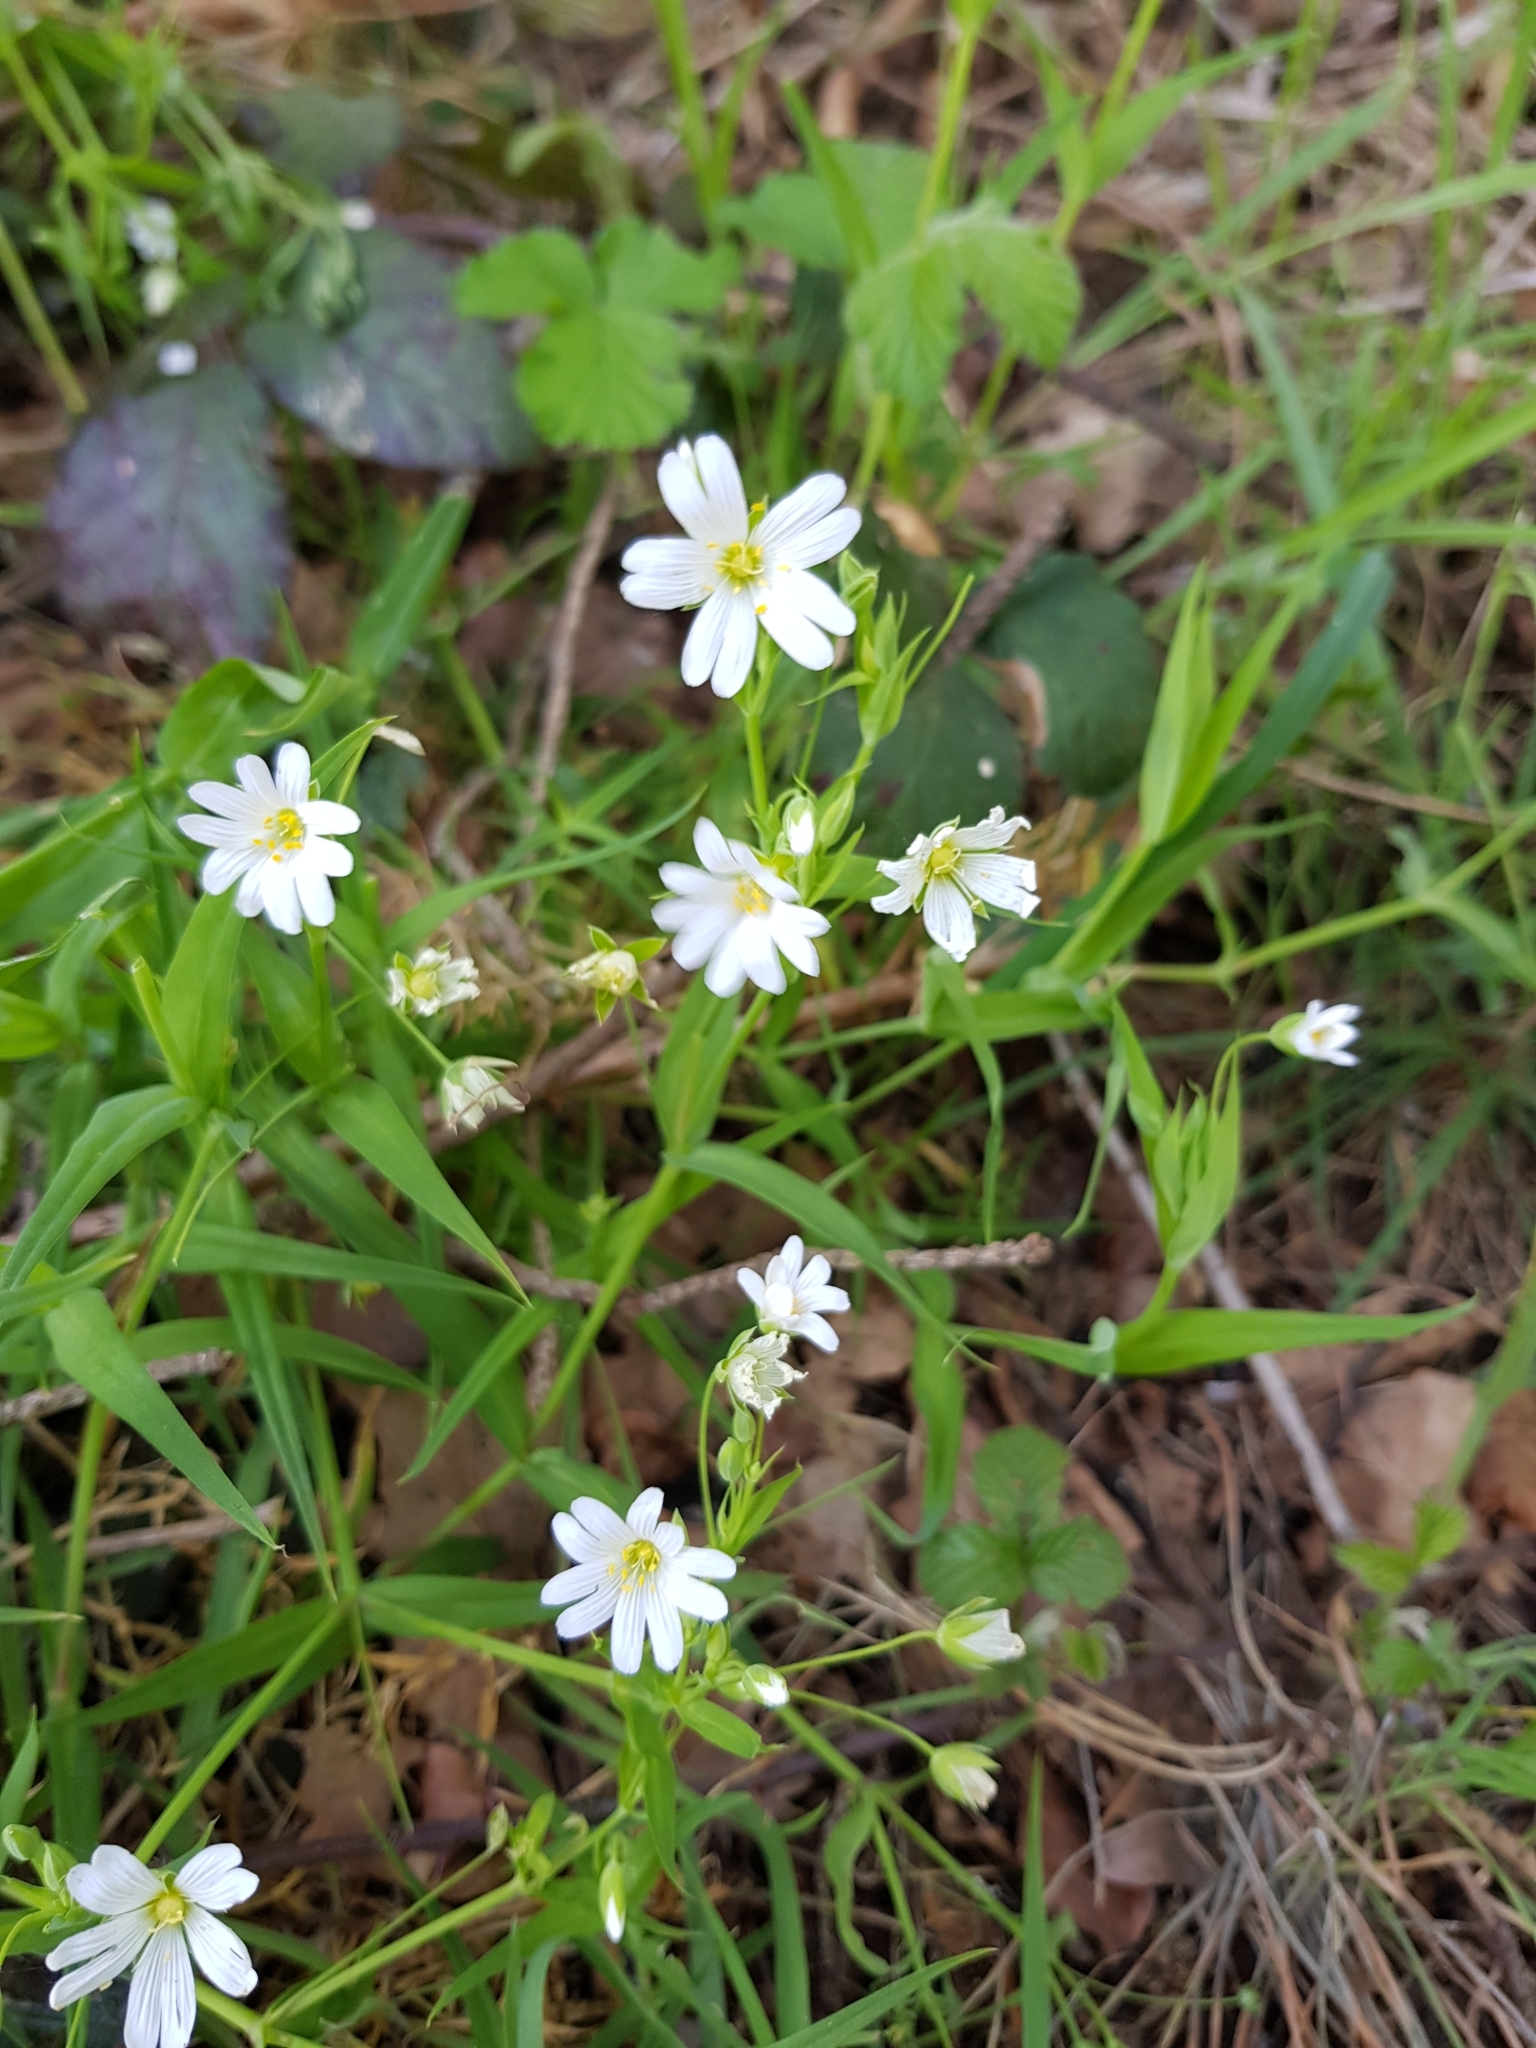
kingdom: Plantae
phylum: Tracheophyta
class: Magnoliopsida
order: Caryophyllales
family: Caryophyllaceae
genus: Rabelera
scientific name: Rabelera holostea
